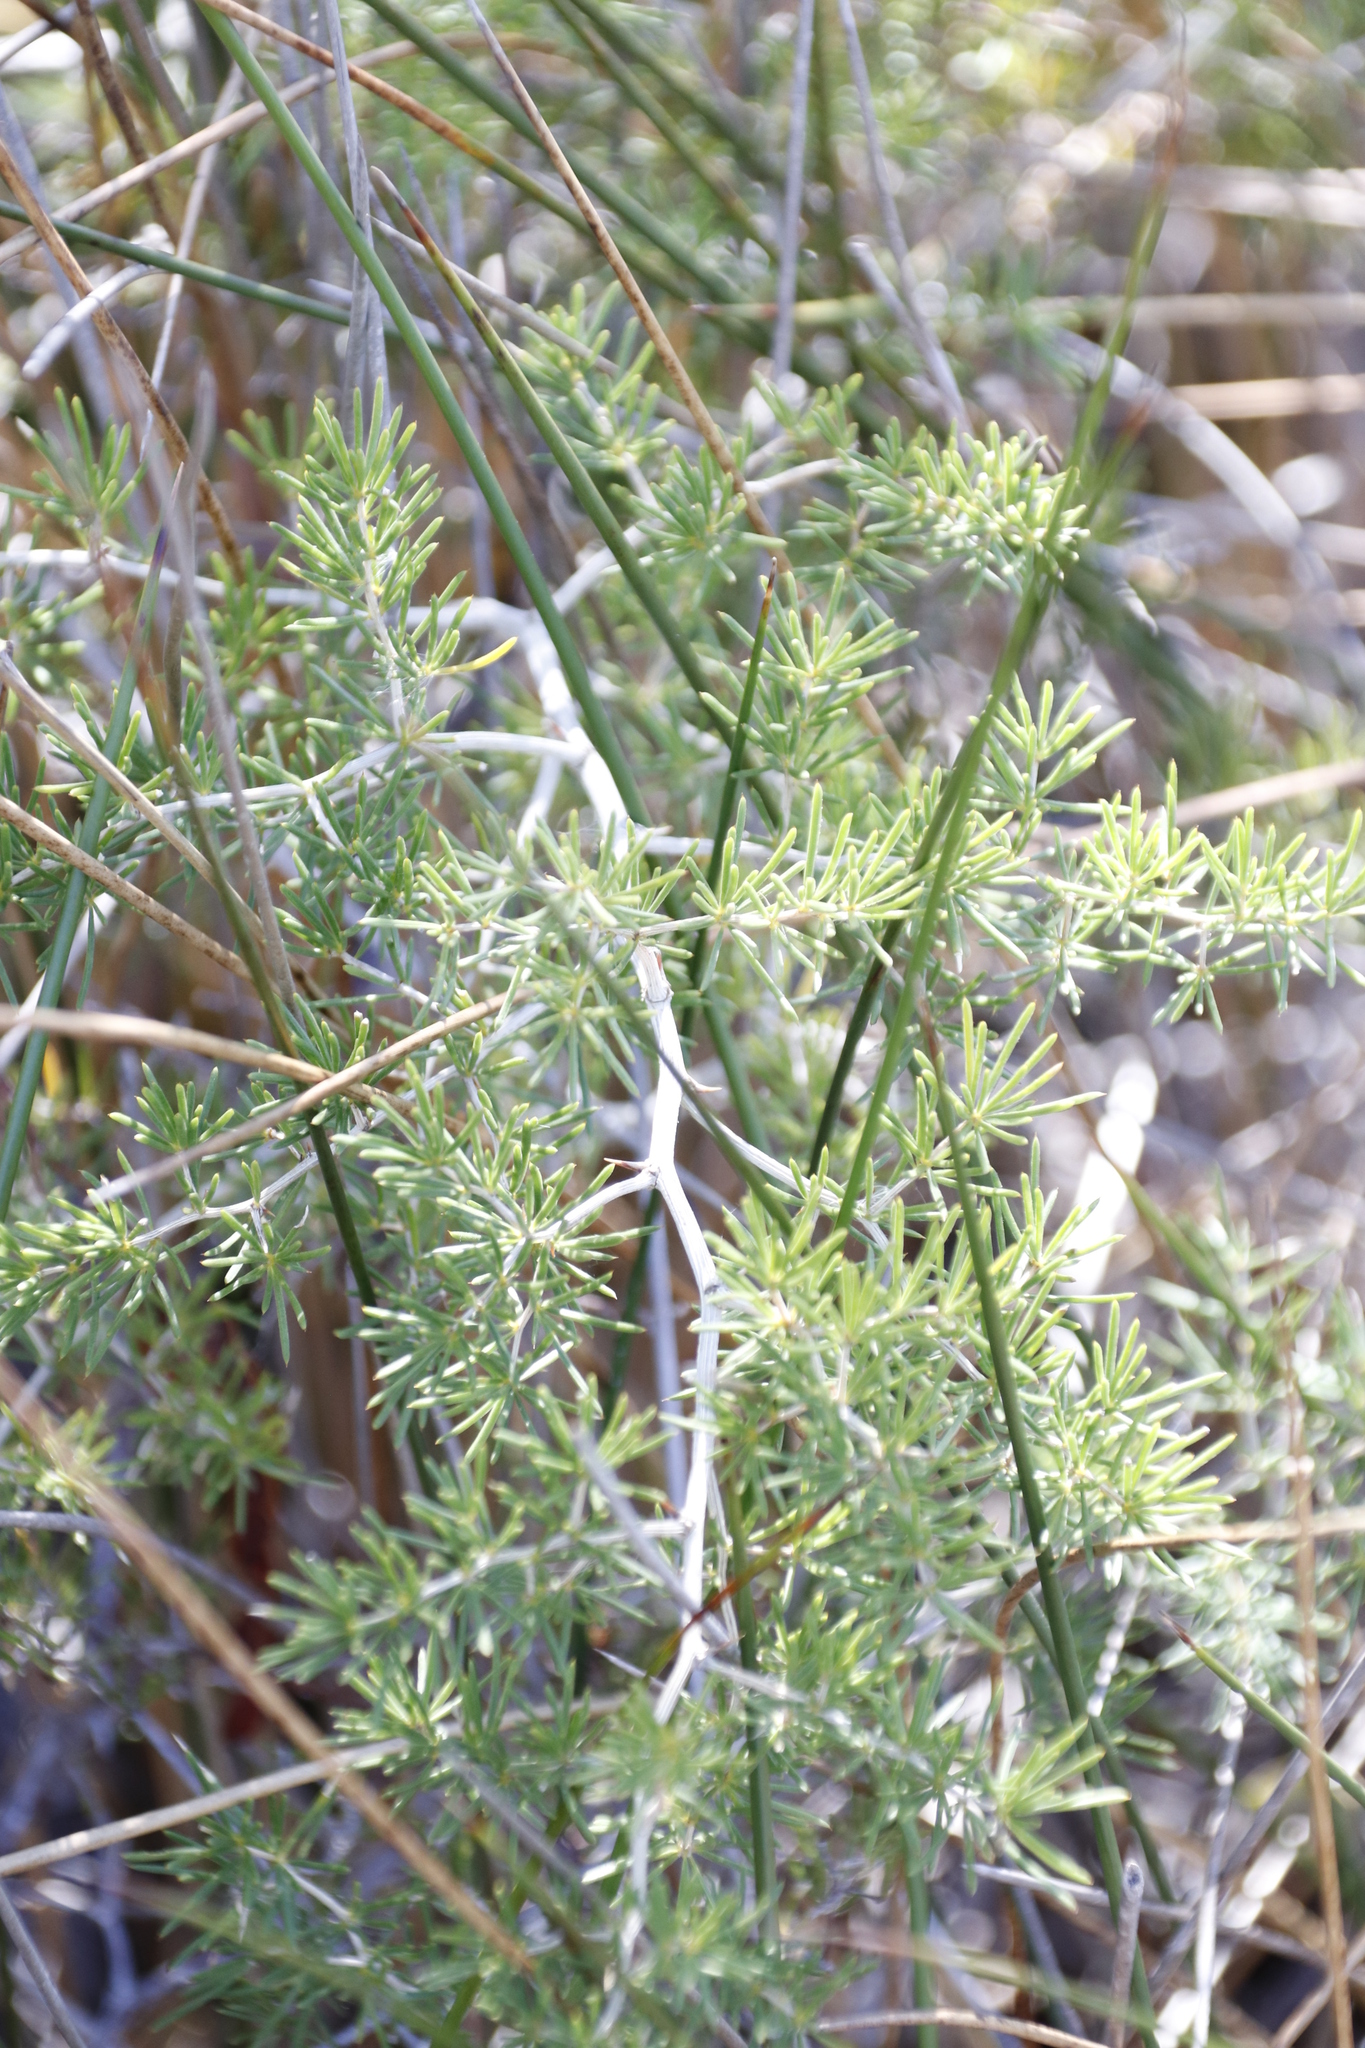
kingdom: Plantae
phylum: Tracheophyta
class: Liliopsida
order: Asparagales
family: Asparagaceae
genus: Asparagus
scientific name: Asparagus lignosus
